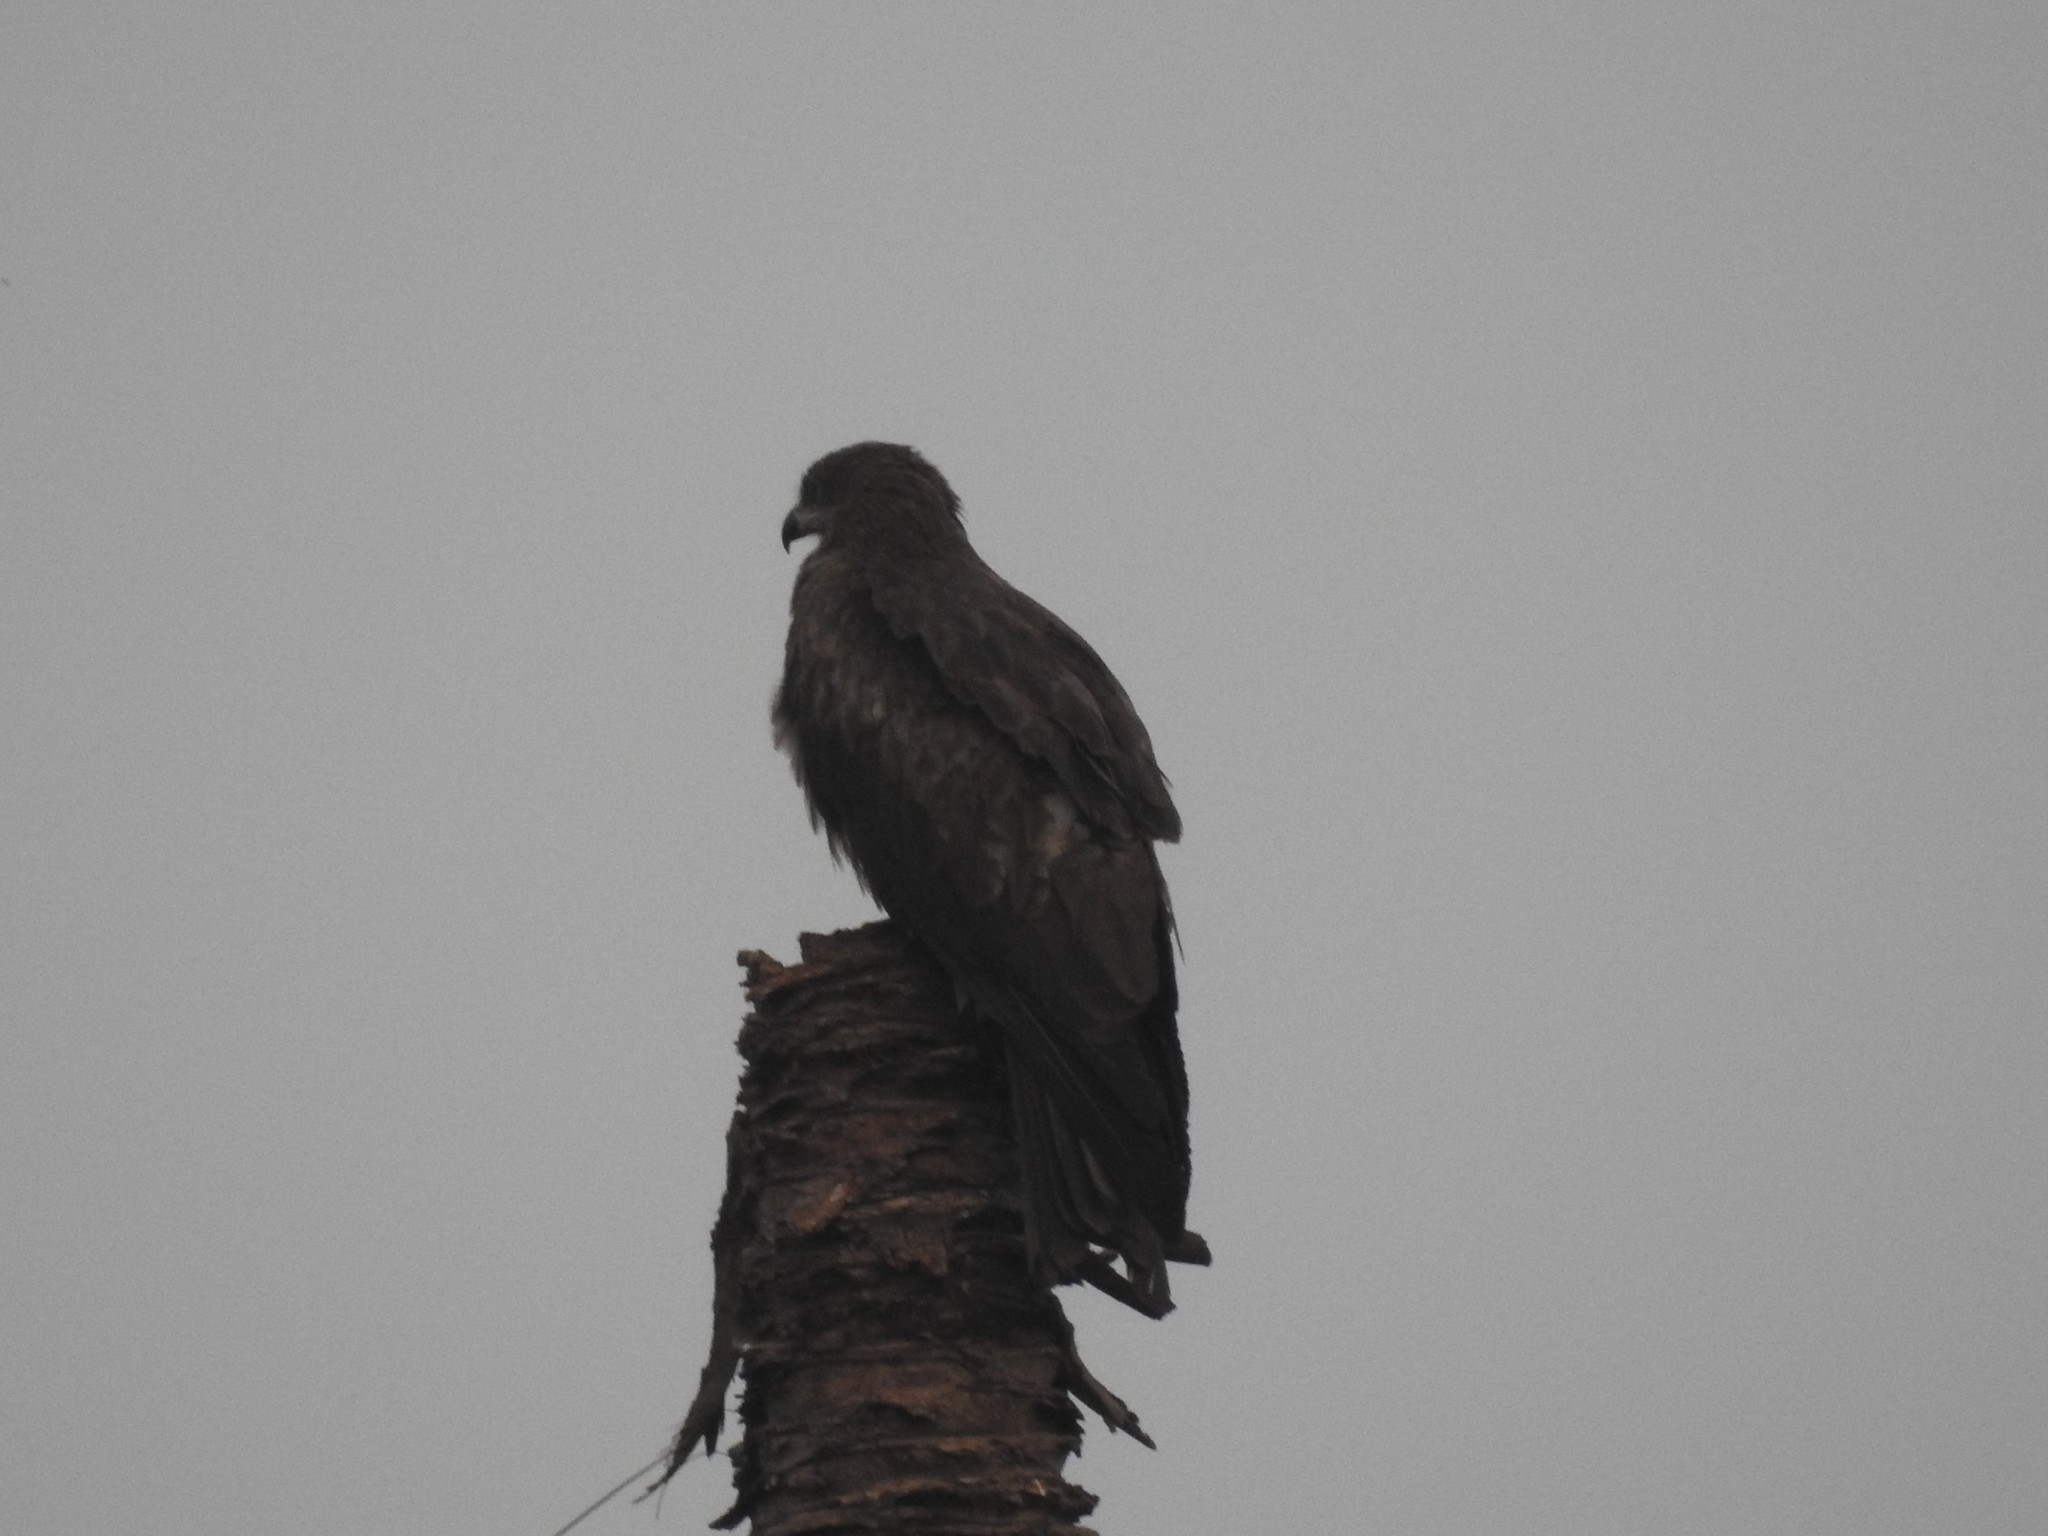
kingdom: Animalia
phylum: Chordata
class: Aves
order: Accipitriformes
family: Accipitridae
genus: Milvus
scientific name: Milvus migrans
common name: Black kite
